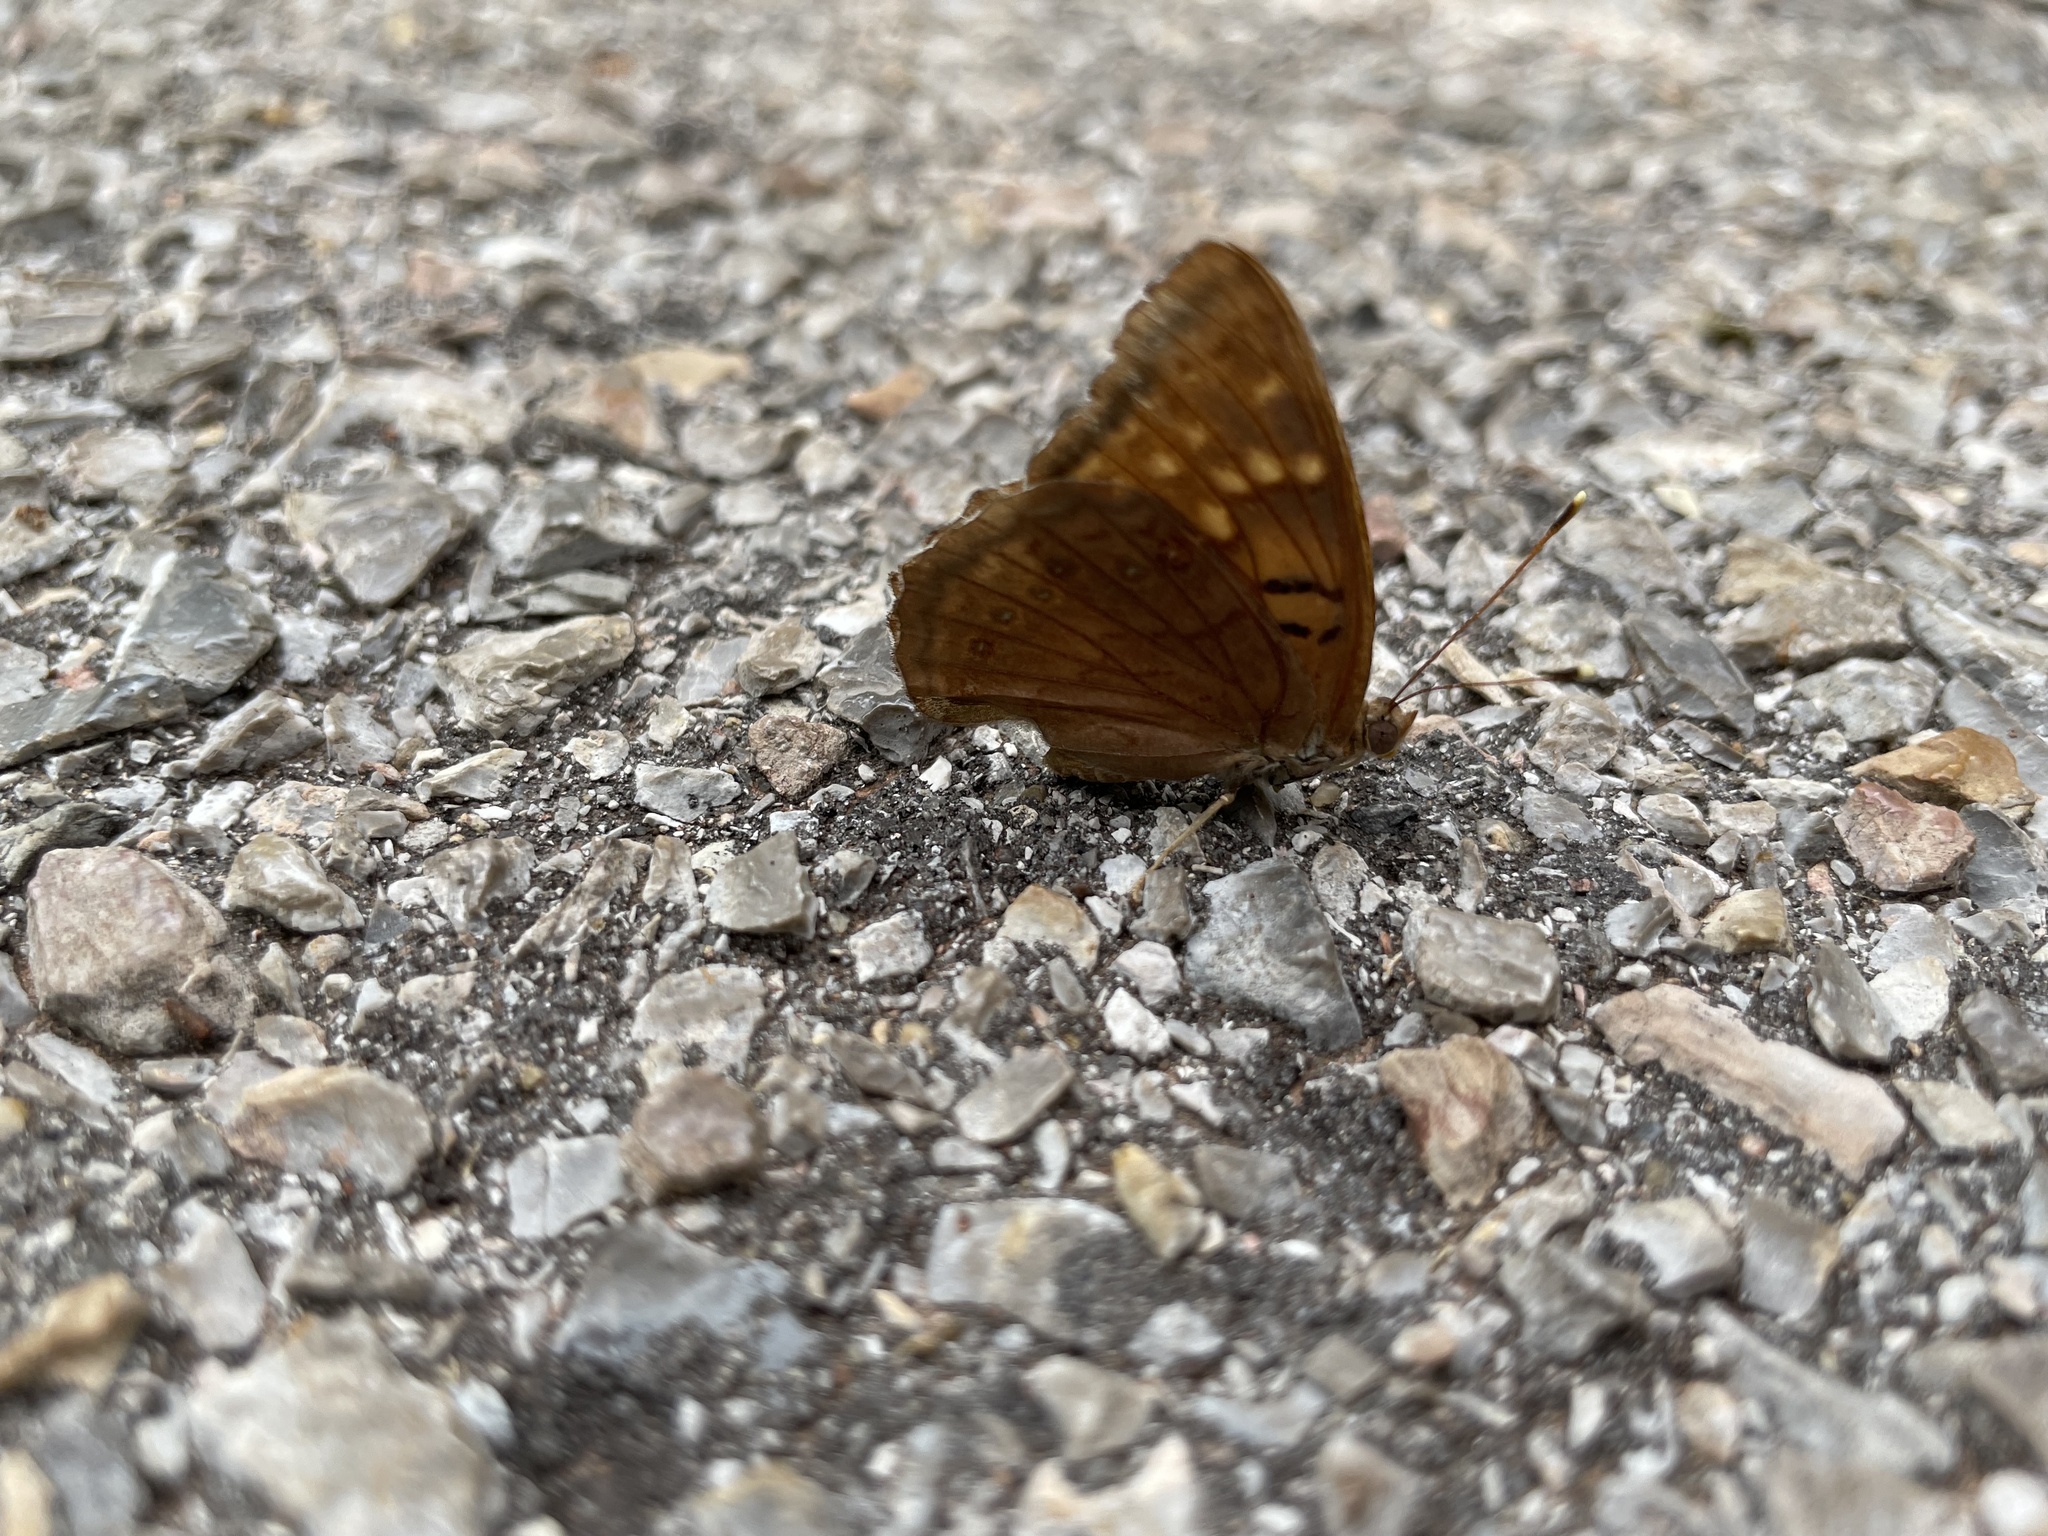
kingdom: Animalia
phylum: Arthropoda
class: Insecta
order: Lepidoptera
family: Nymphalidae
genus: Asterocampa
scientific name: Asterocampa clyton
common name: Tawny emperor
